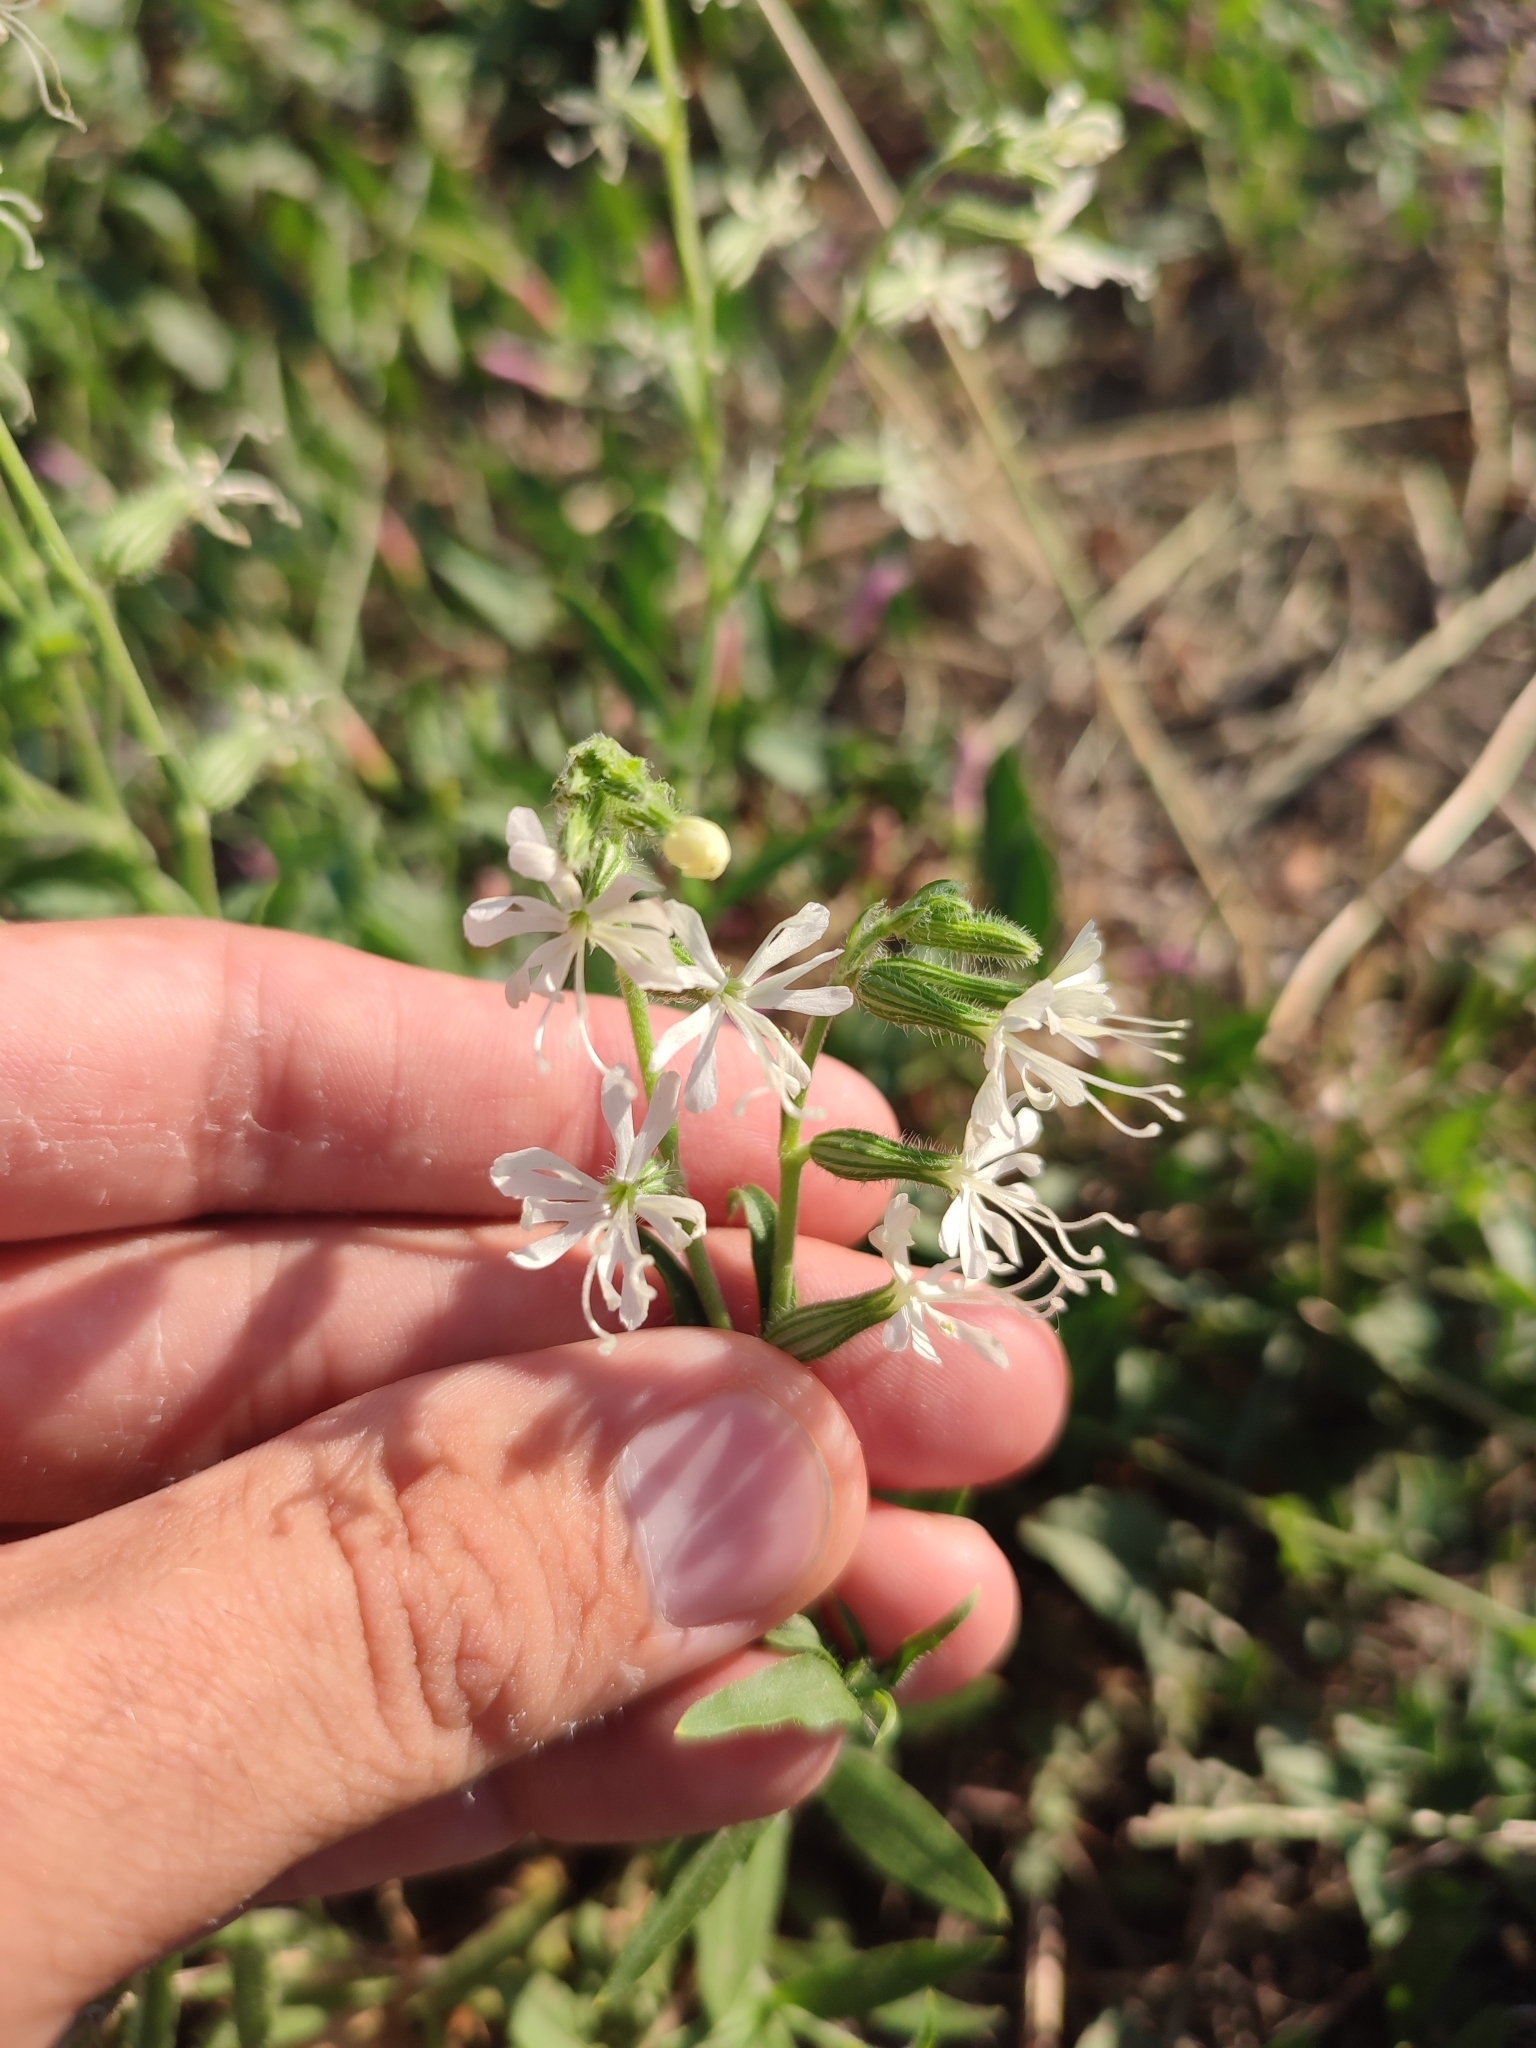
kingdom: Plantae
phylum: Tracheophyta
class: Magnoliopsida
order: Caryophyllales
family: Caryophyllaceae
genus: Silene
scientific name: Silene dichotoma
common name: Forked catchfly
